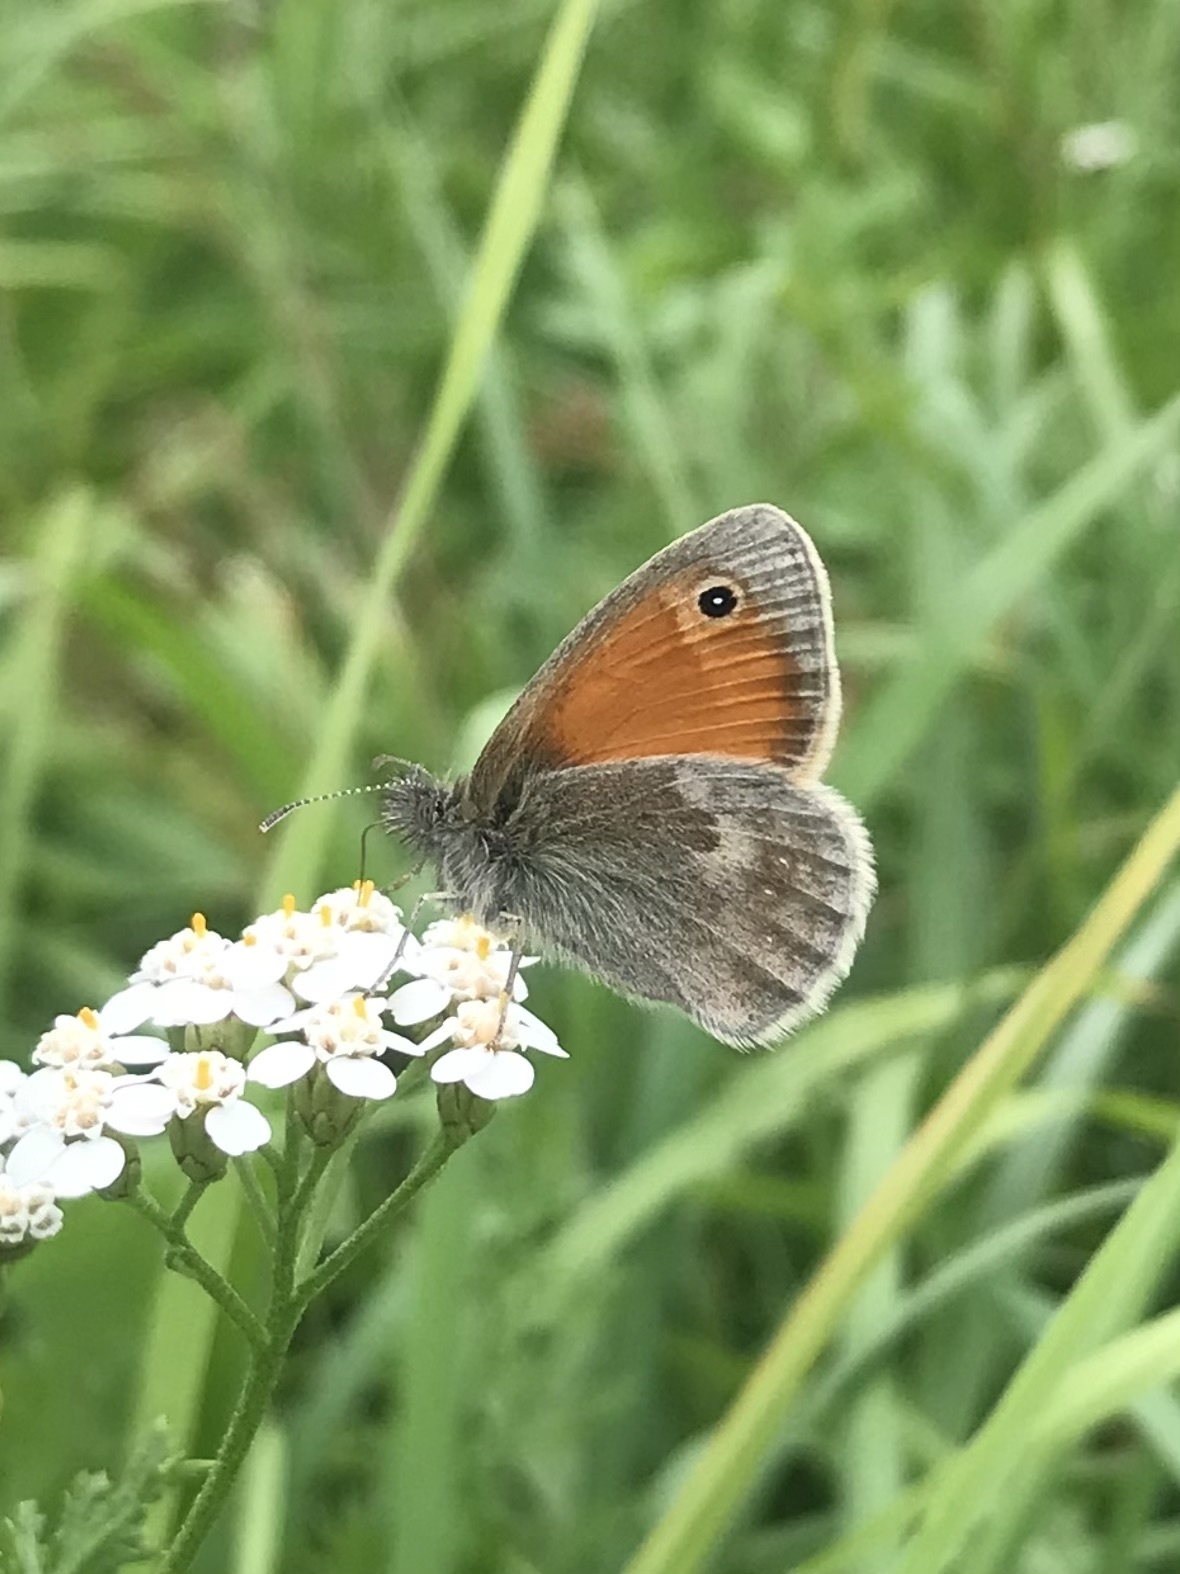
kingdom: Animalia
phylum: Arthropoda
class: Insecta
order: Lepidoptera
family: Nymphalidae
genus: Coenonympha
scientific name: Coenonympha pamphilus
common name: Small heath
